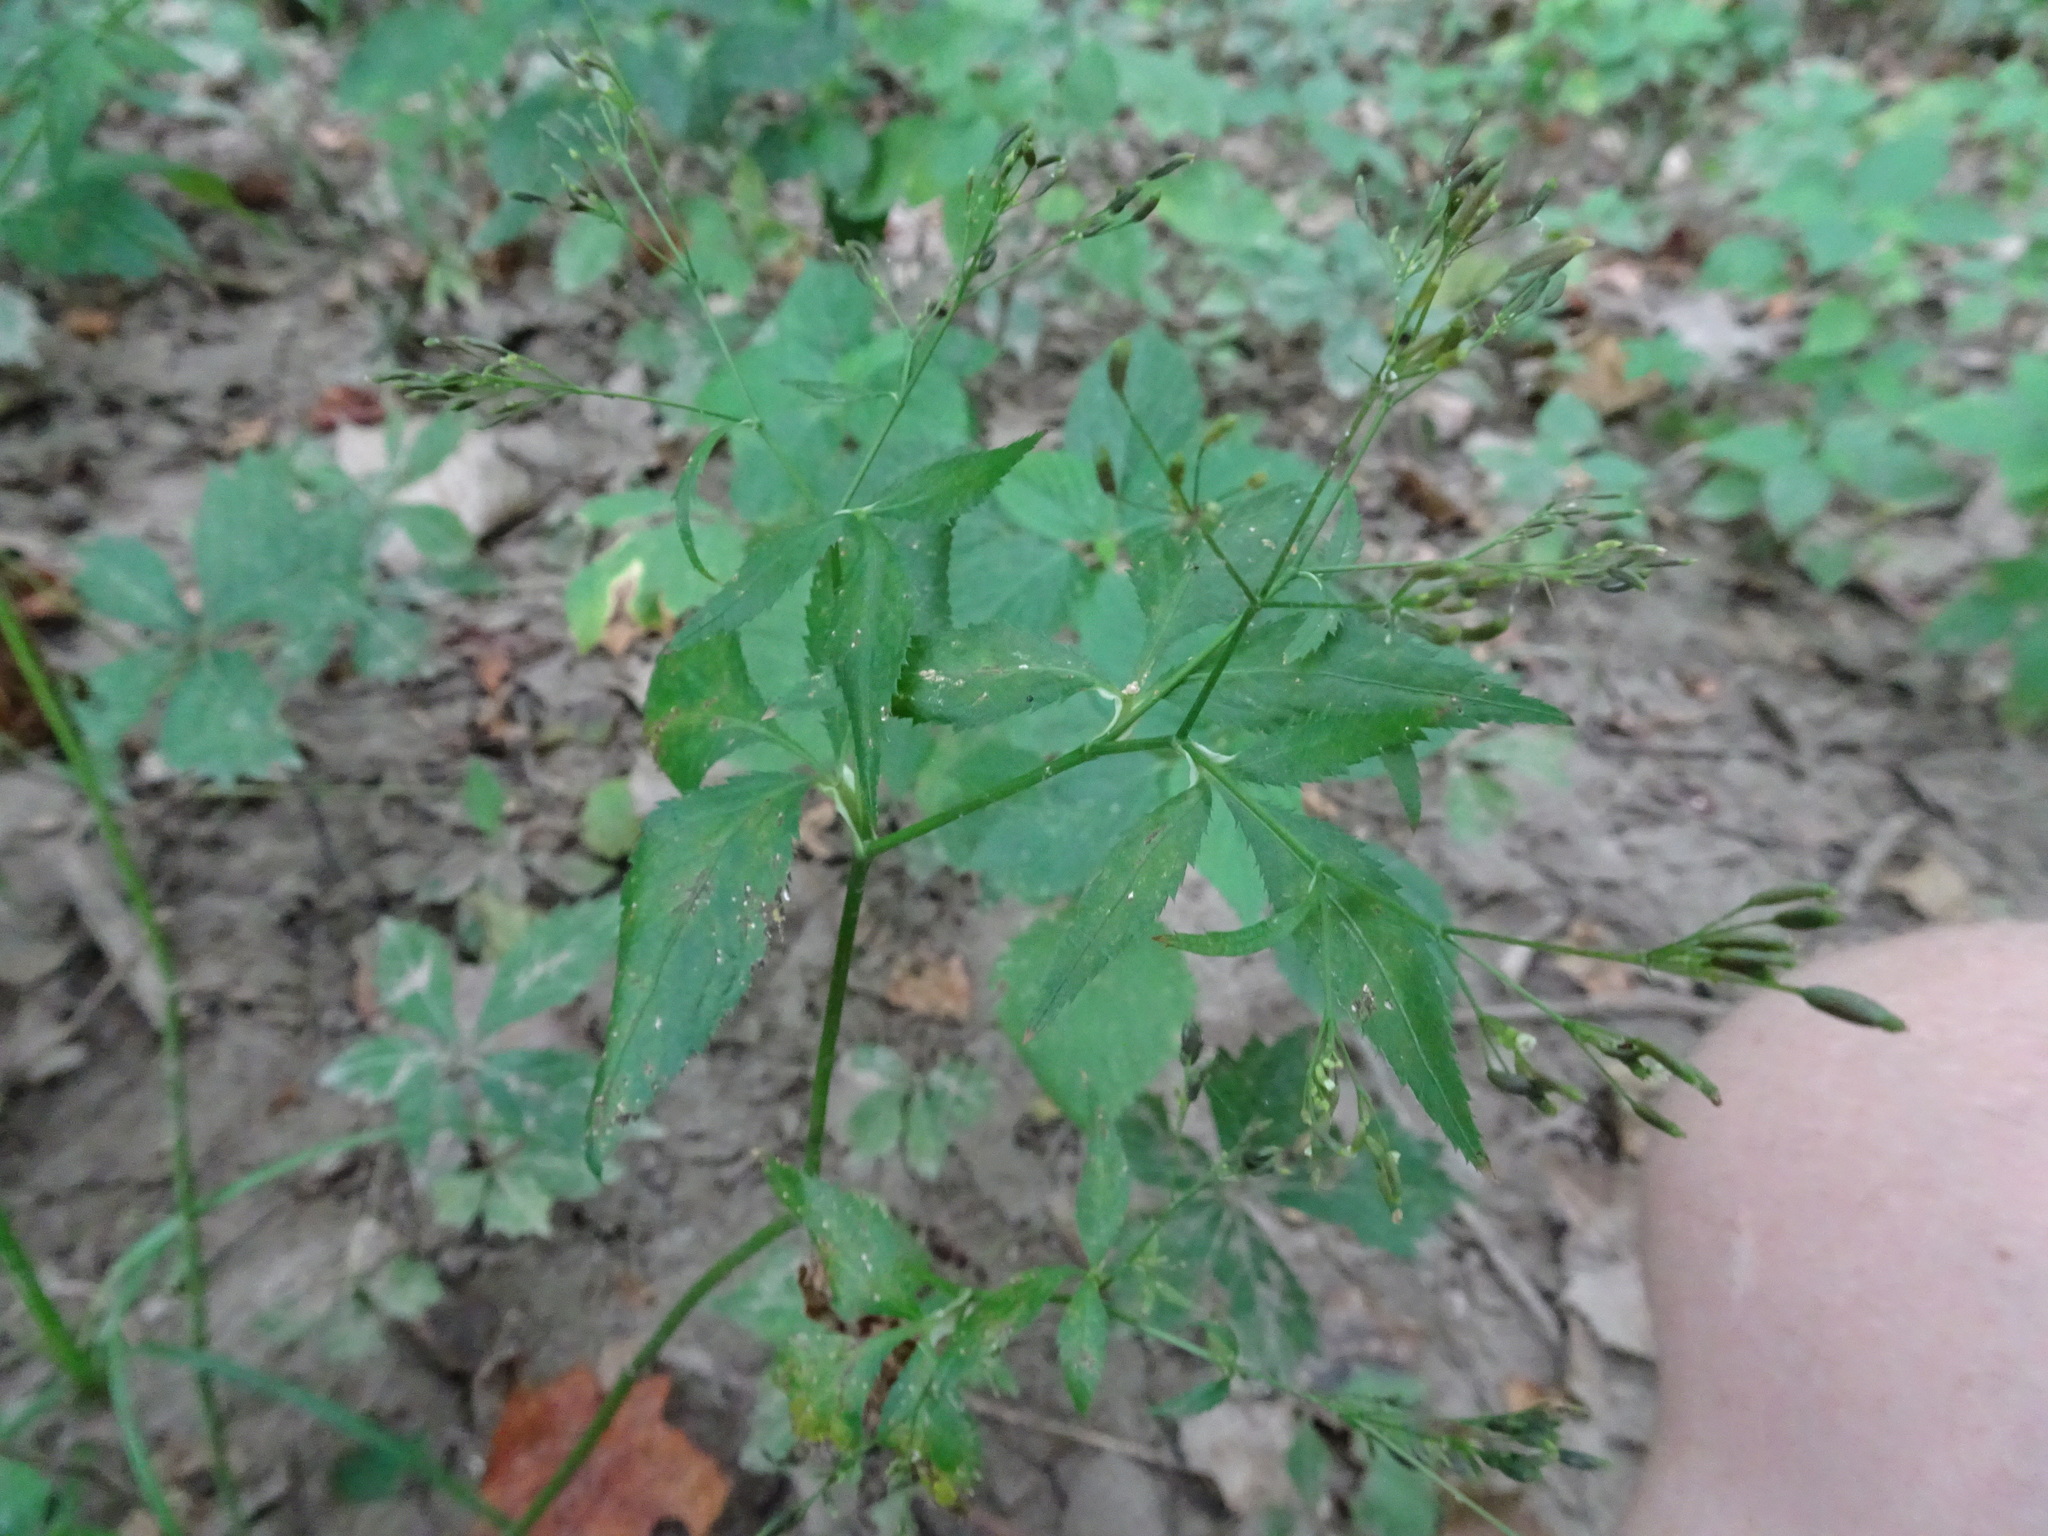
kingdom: Plantae
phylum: Tracheophyta
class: Magnoliopsida
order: Apiales
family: Apiaceae
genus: Cryptotaenia
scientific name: Cryptotaenia canadensis
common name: Honewort
